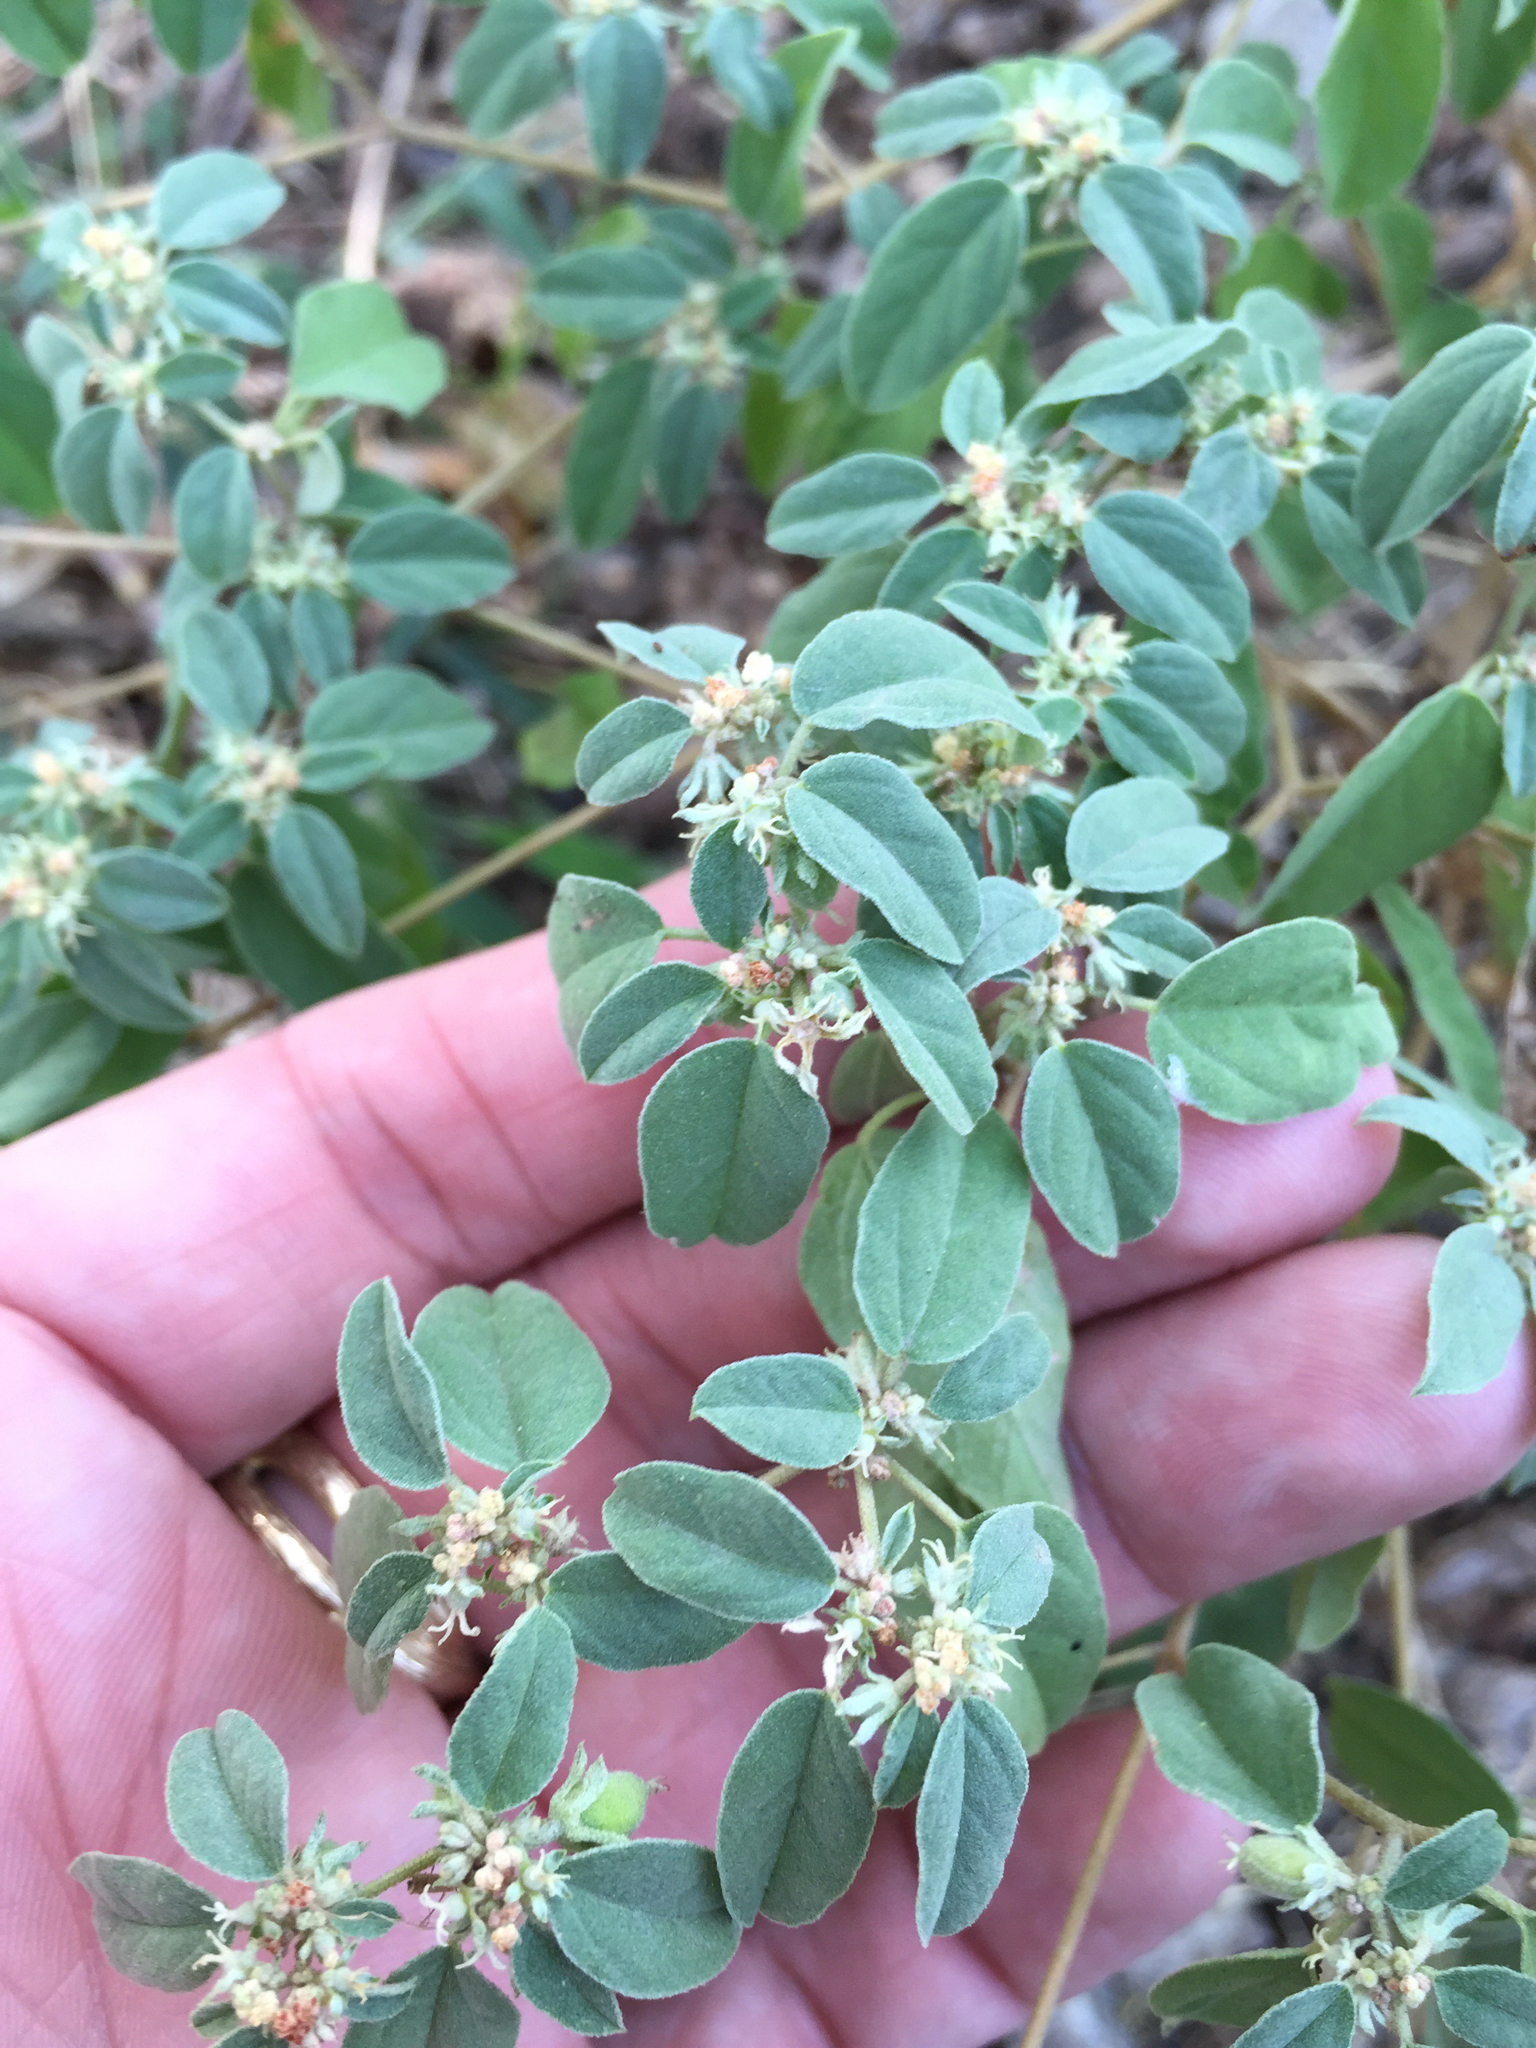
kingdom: Plantae
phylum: Tracheophyta
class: Magnoliopsida
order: Malpighiales
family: Euphorbiaceae
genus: Croton
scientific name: Croton monanthogynus
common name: One-seed croton
